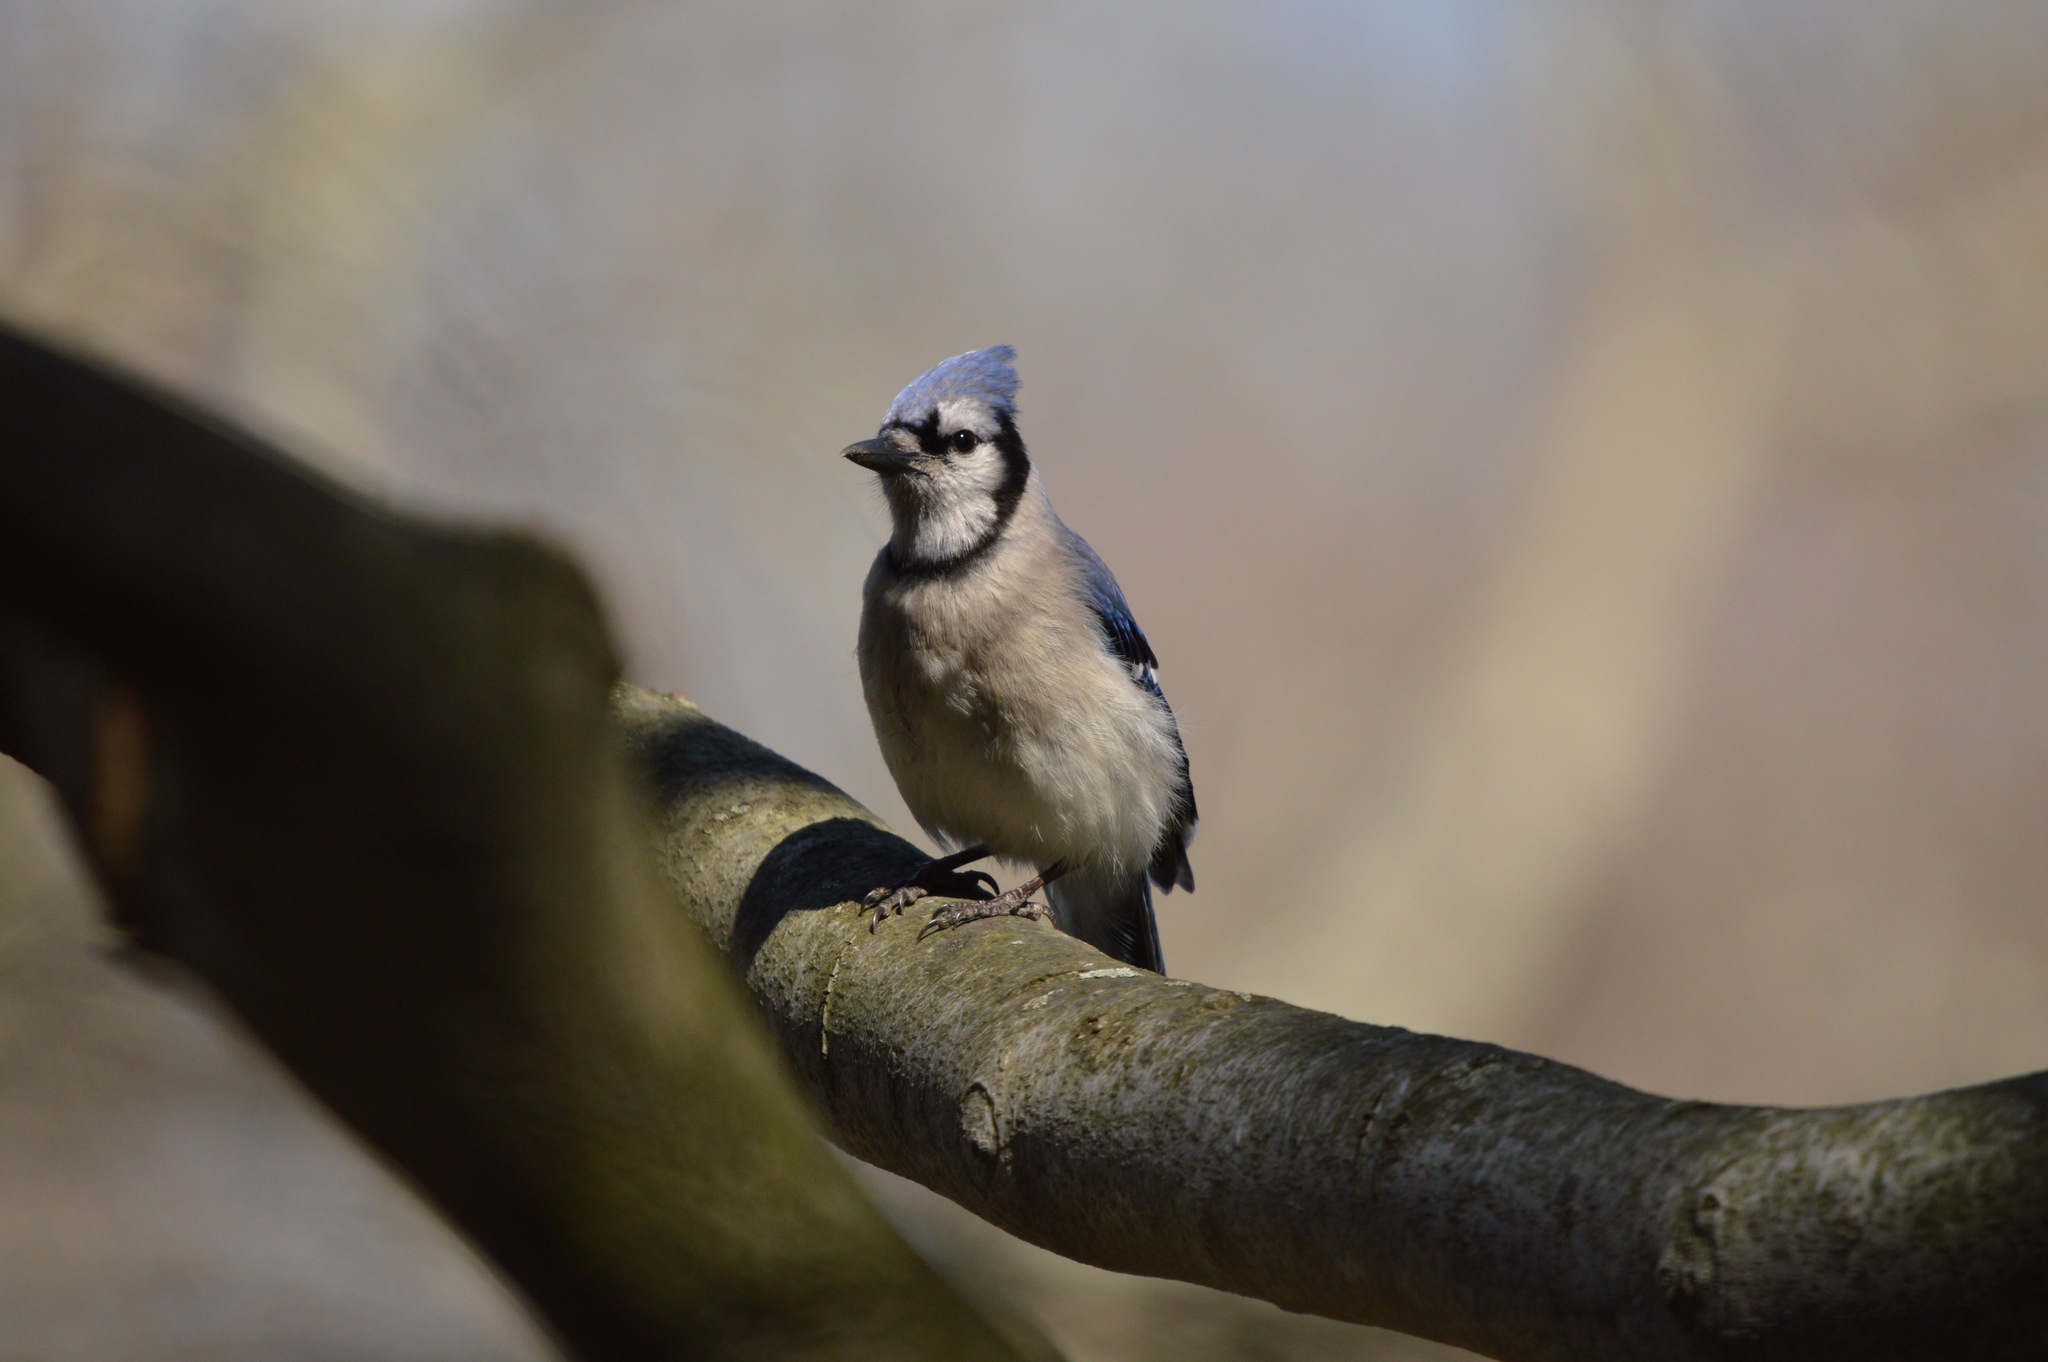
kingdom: Animalia
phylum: Chordata
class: Aves
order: Passeriformes
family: Corvidae
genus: Cyanocitta
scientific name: Cyanocitta cristata
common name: Blue jay
